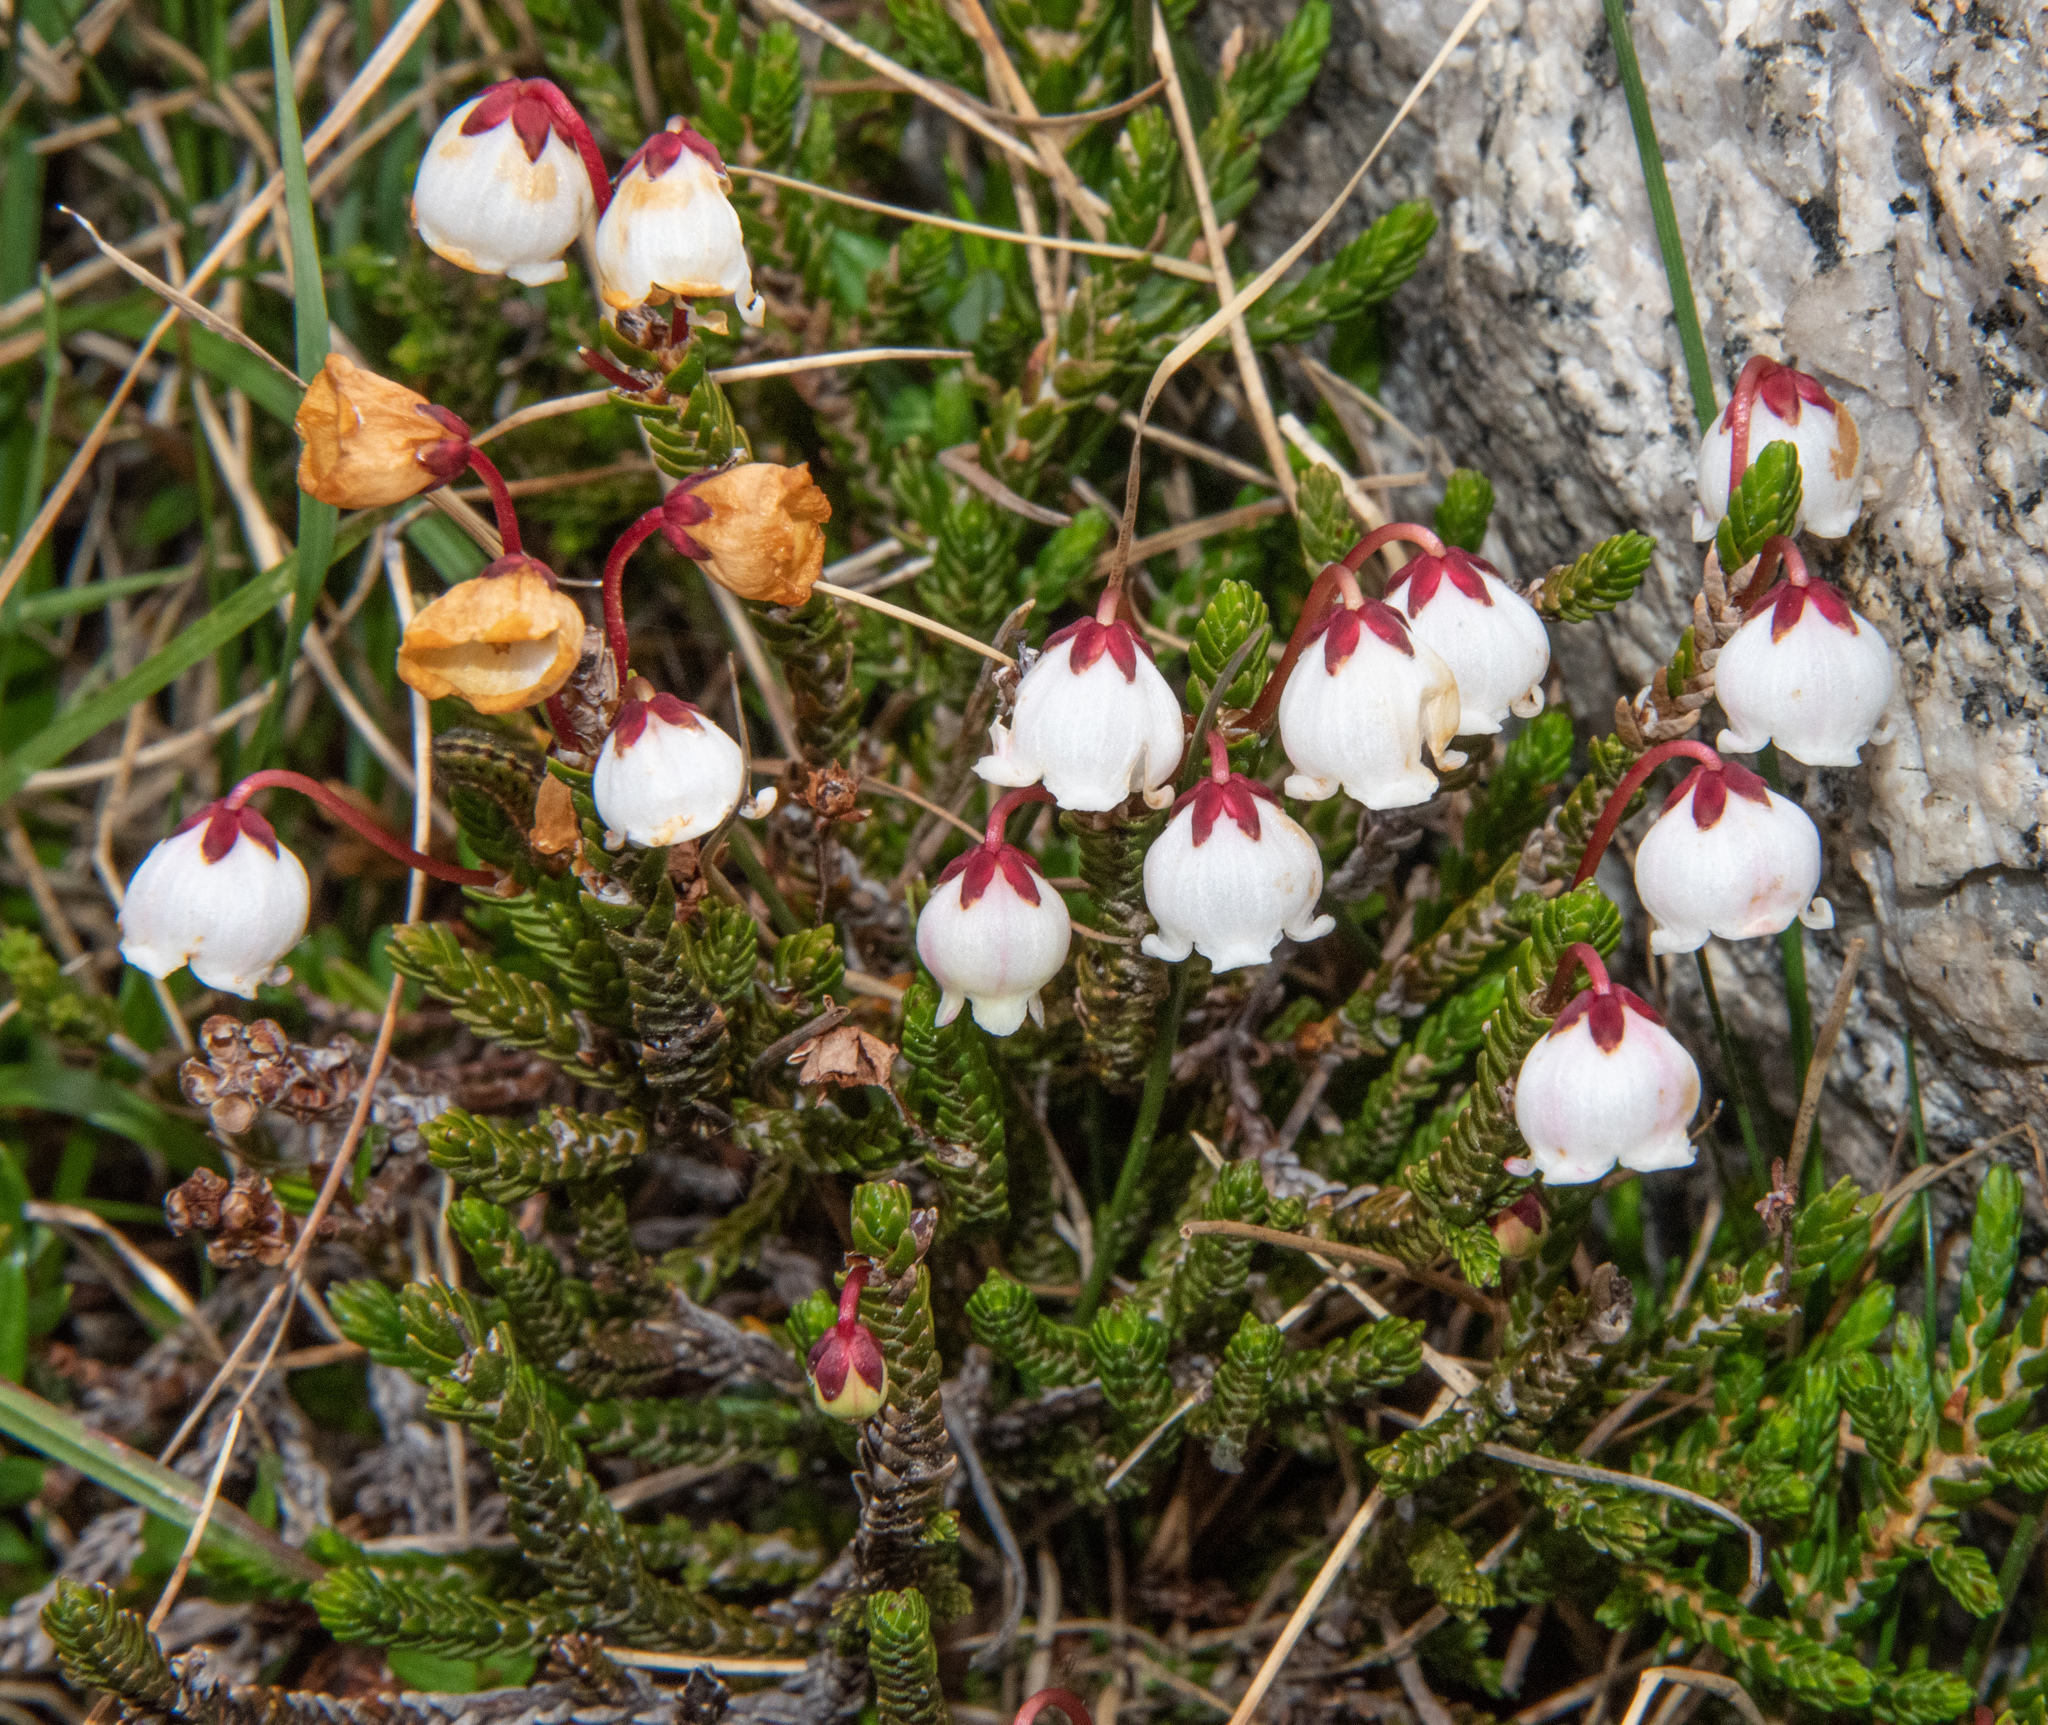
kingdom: Plantae
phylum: Tracheophyta
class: Magnoliopsida
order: Ericales
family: Ericaceae
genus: Cassiope
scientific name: Cassiope mertensiana
